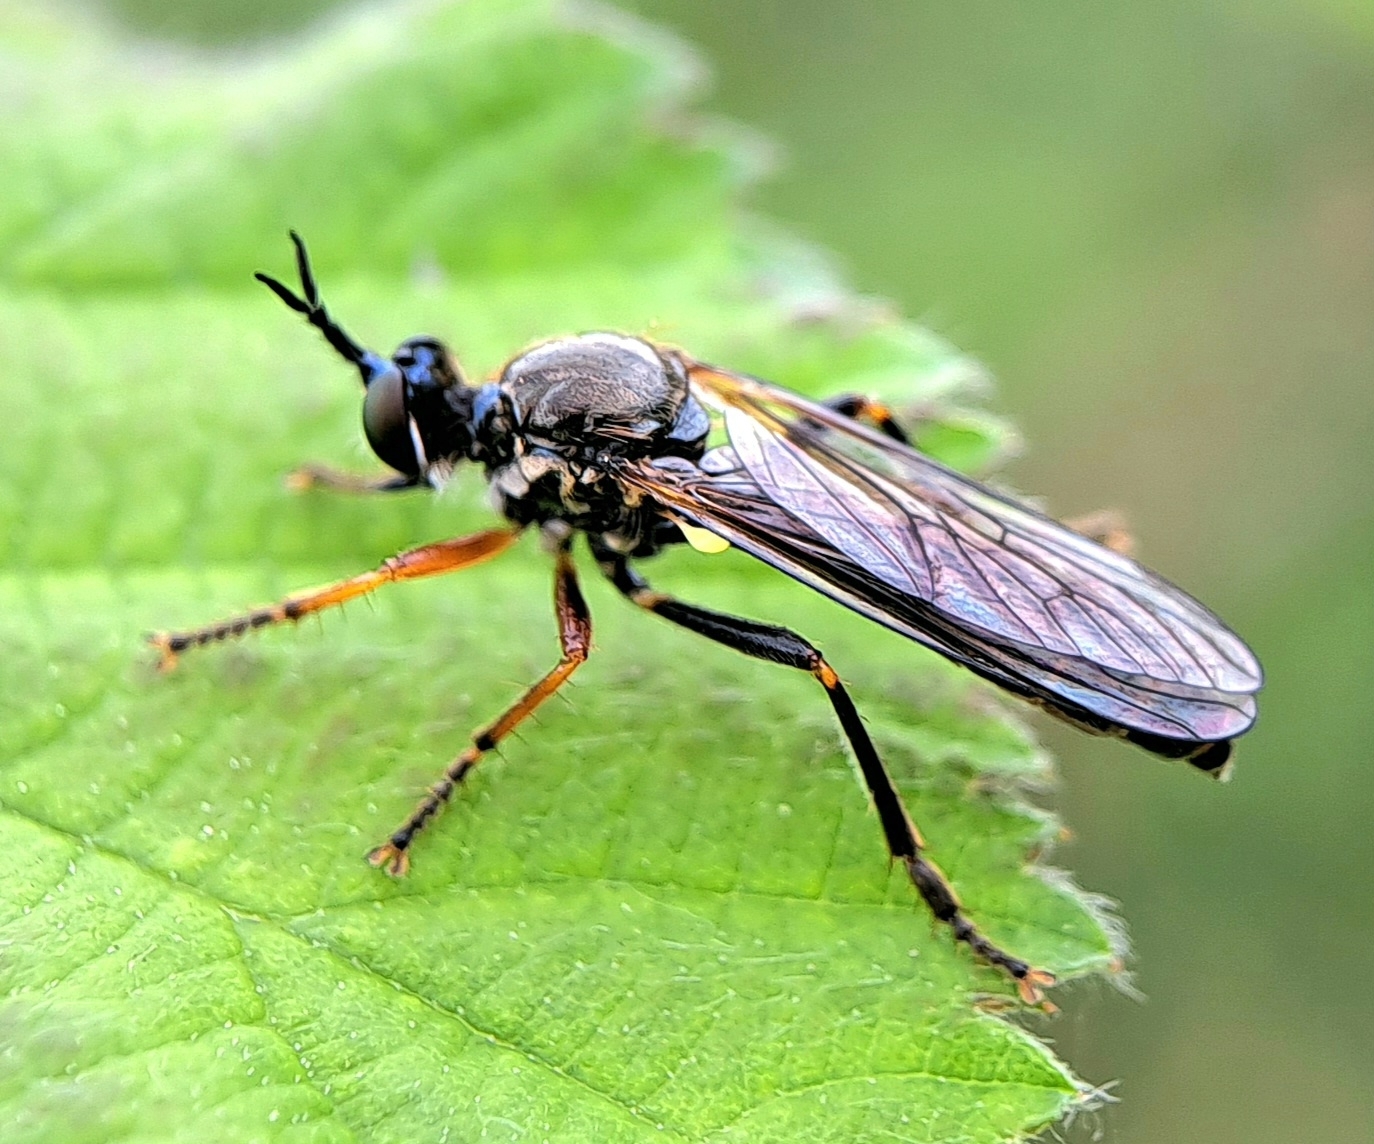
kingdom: Animalia
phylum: Arthropoda
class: Insecta
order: Diptera
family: Asilidae
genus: Dioctria
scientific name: Dioctria rufipes
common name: Common red-legged robberfly
